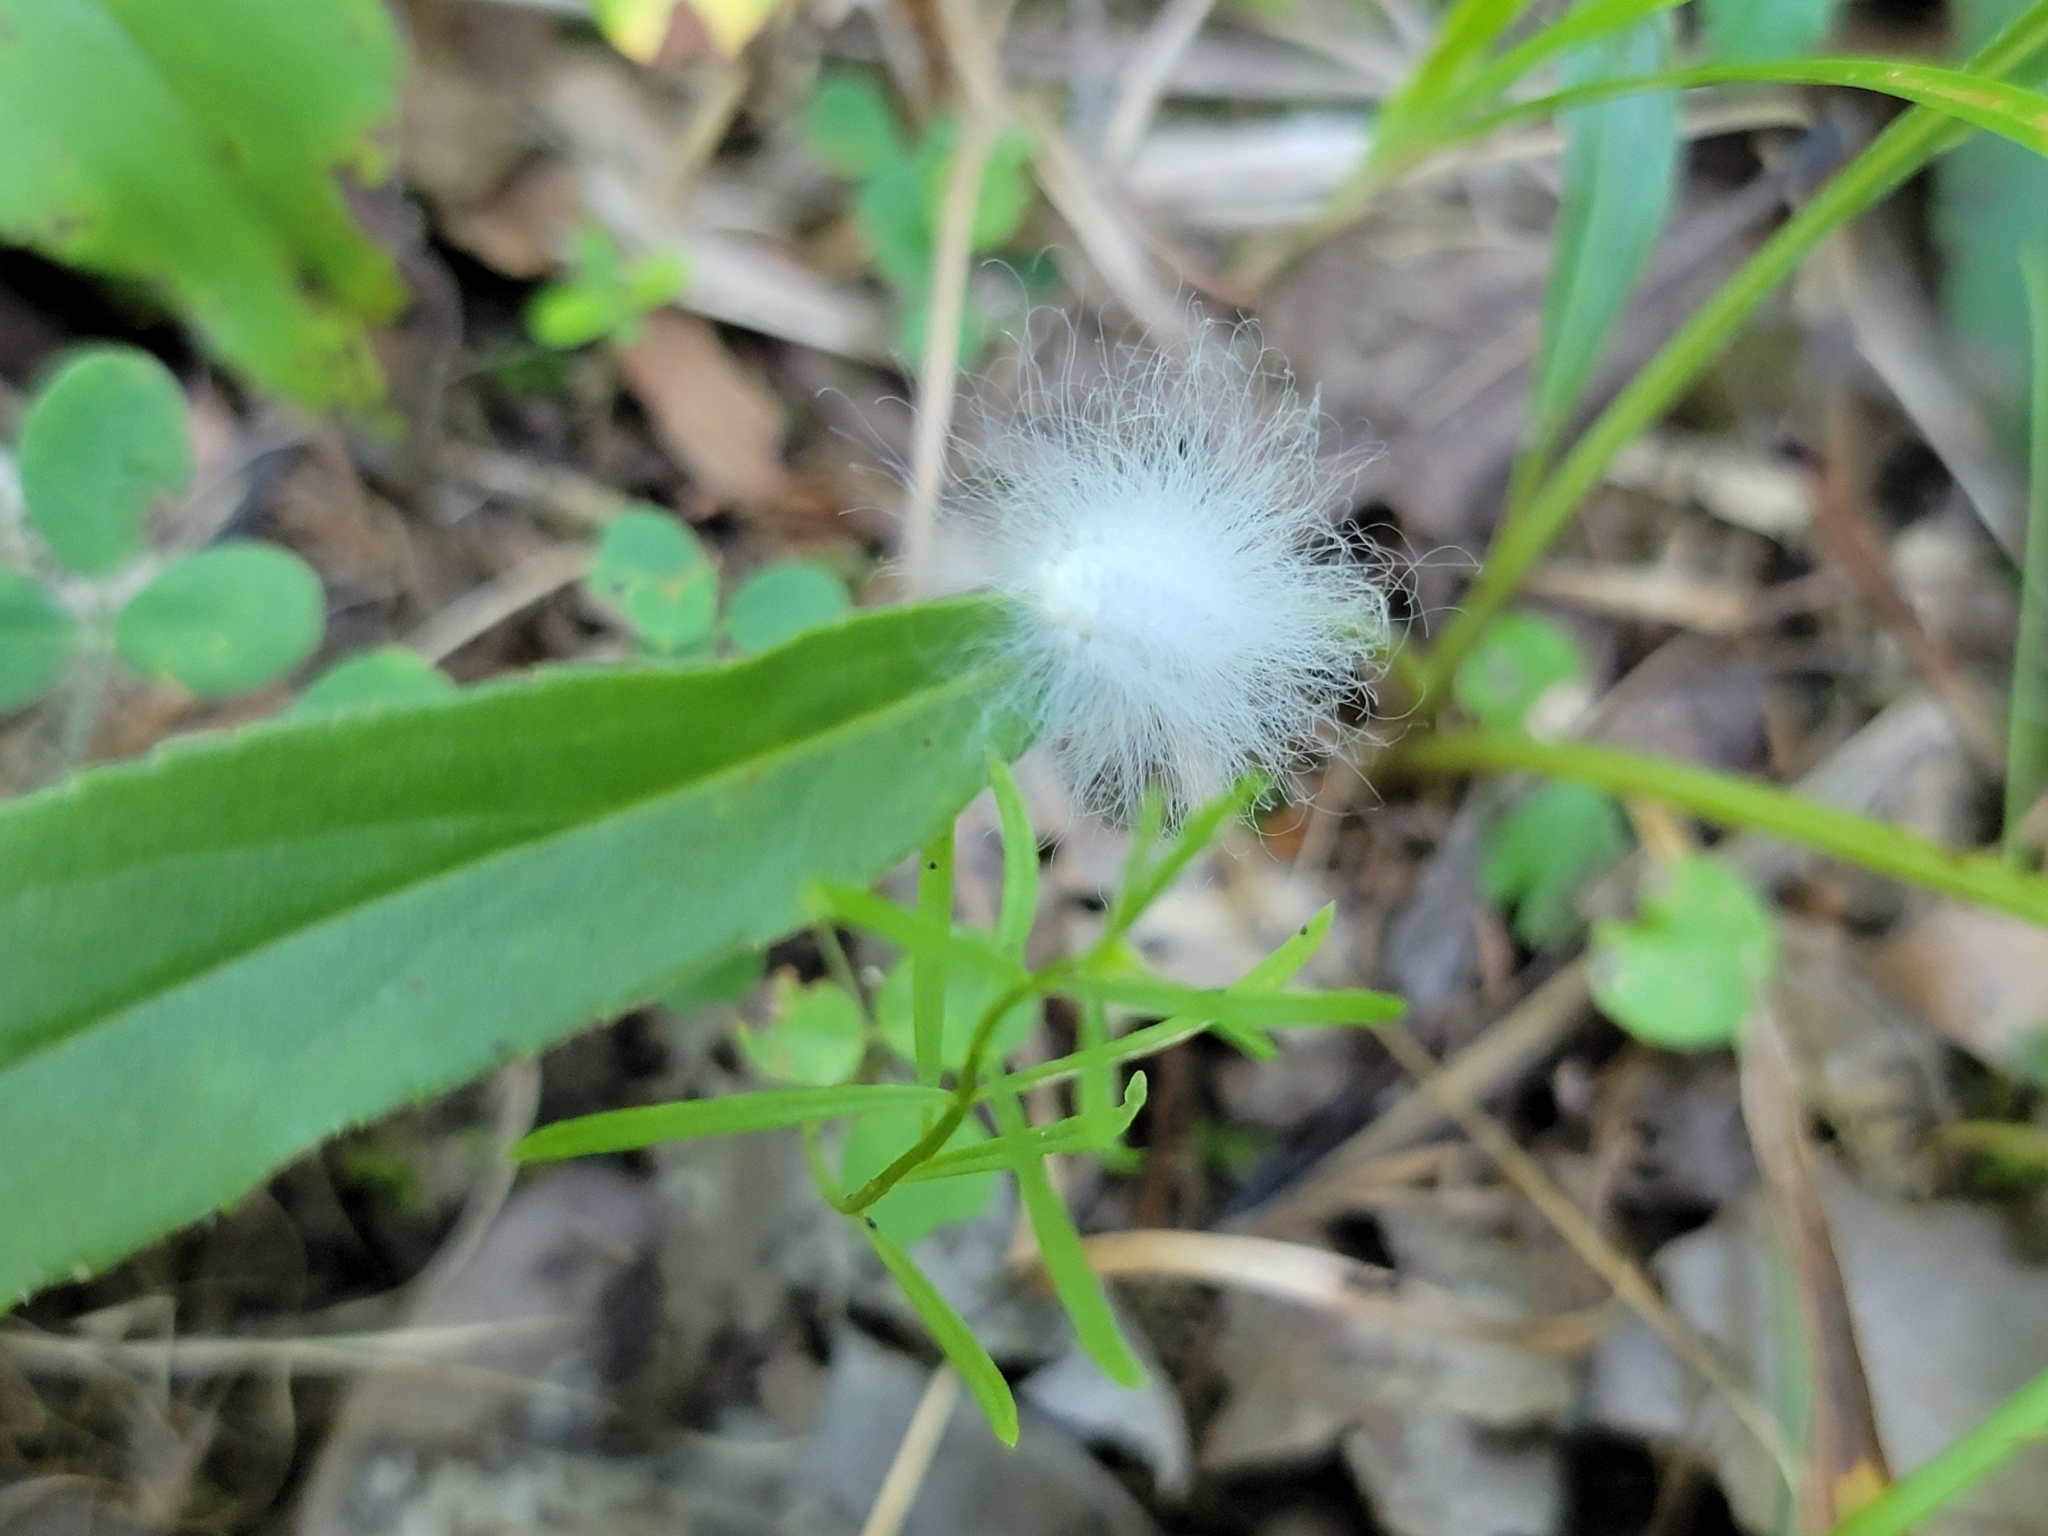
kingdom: Animalia
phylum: Arthropoda
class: Insecta
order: Lepidoptera
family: Megalopygidae
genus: Megalopyge
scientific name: Megalopyge crispata
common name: Black-waved flannel moth
